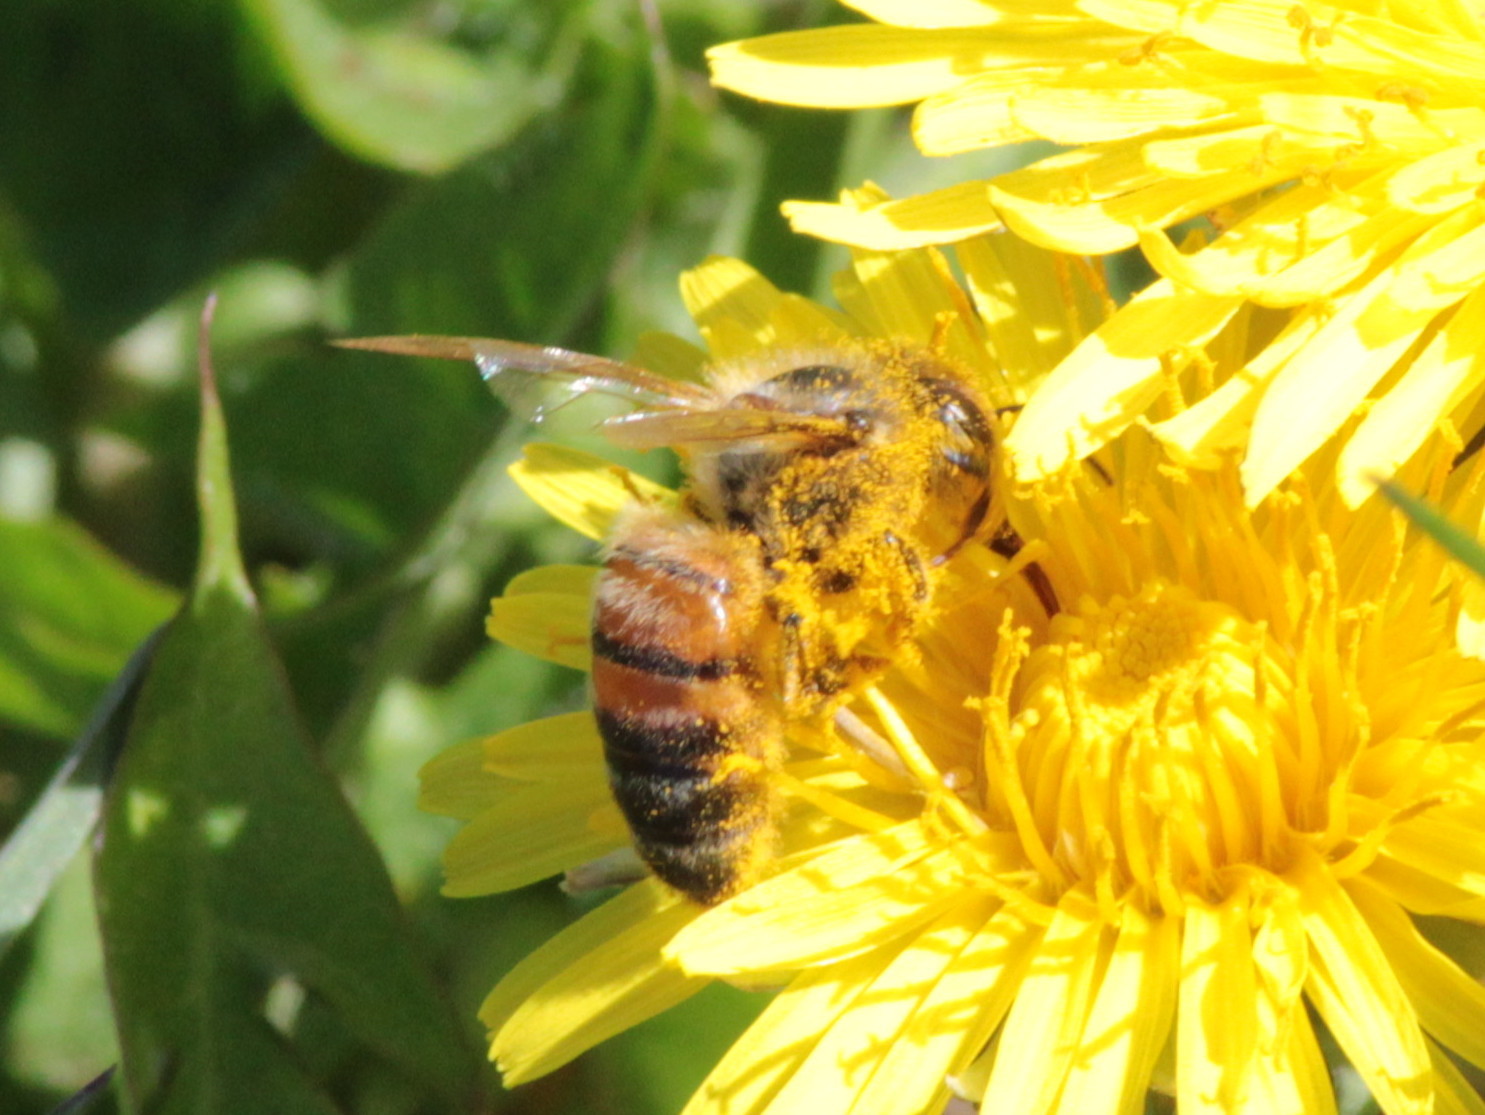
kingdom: Animalia
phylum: Arthropoda
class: Insecta
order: Hymenoptera
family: Apidae
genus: Apis
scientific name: Apis mellifera
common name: Honey bee
